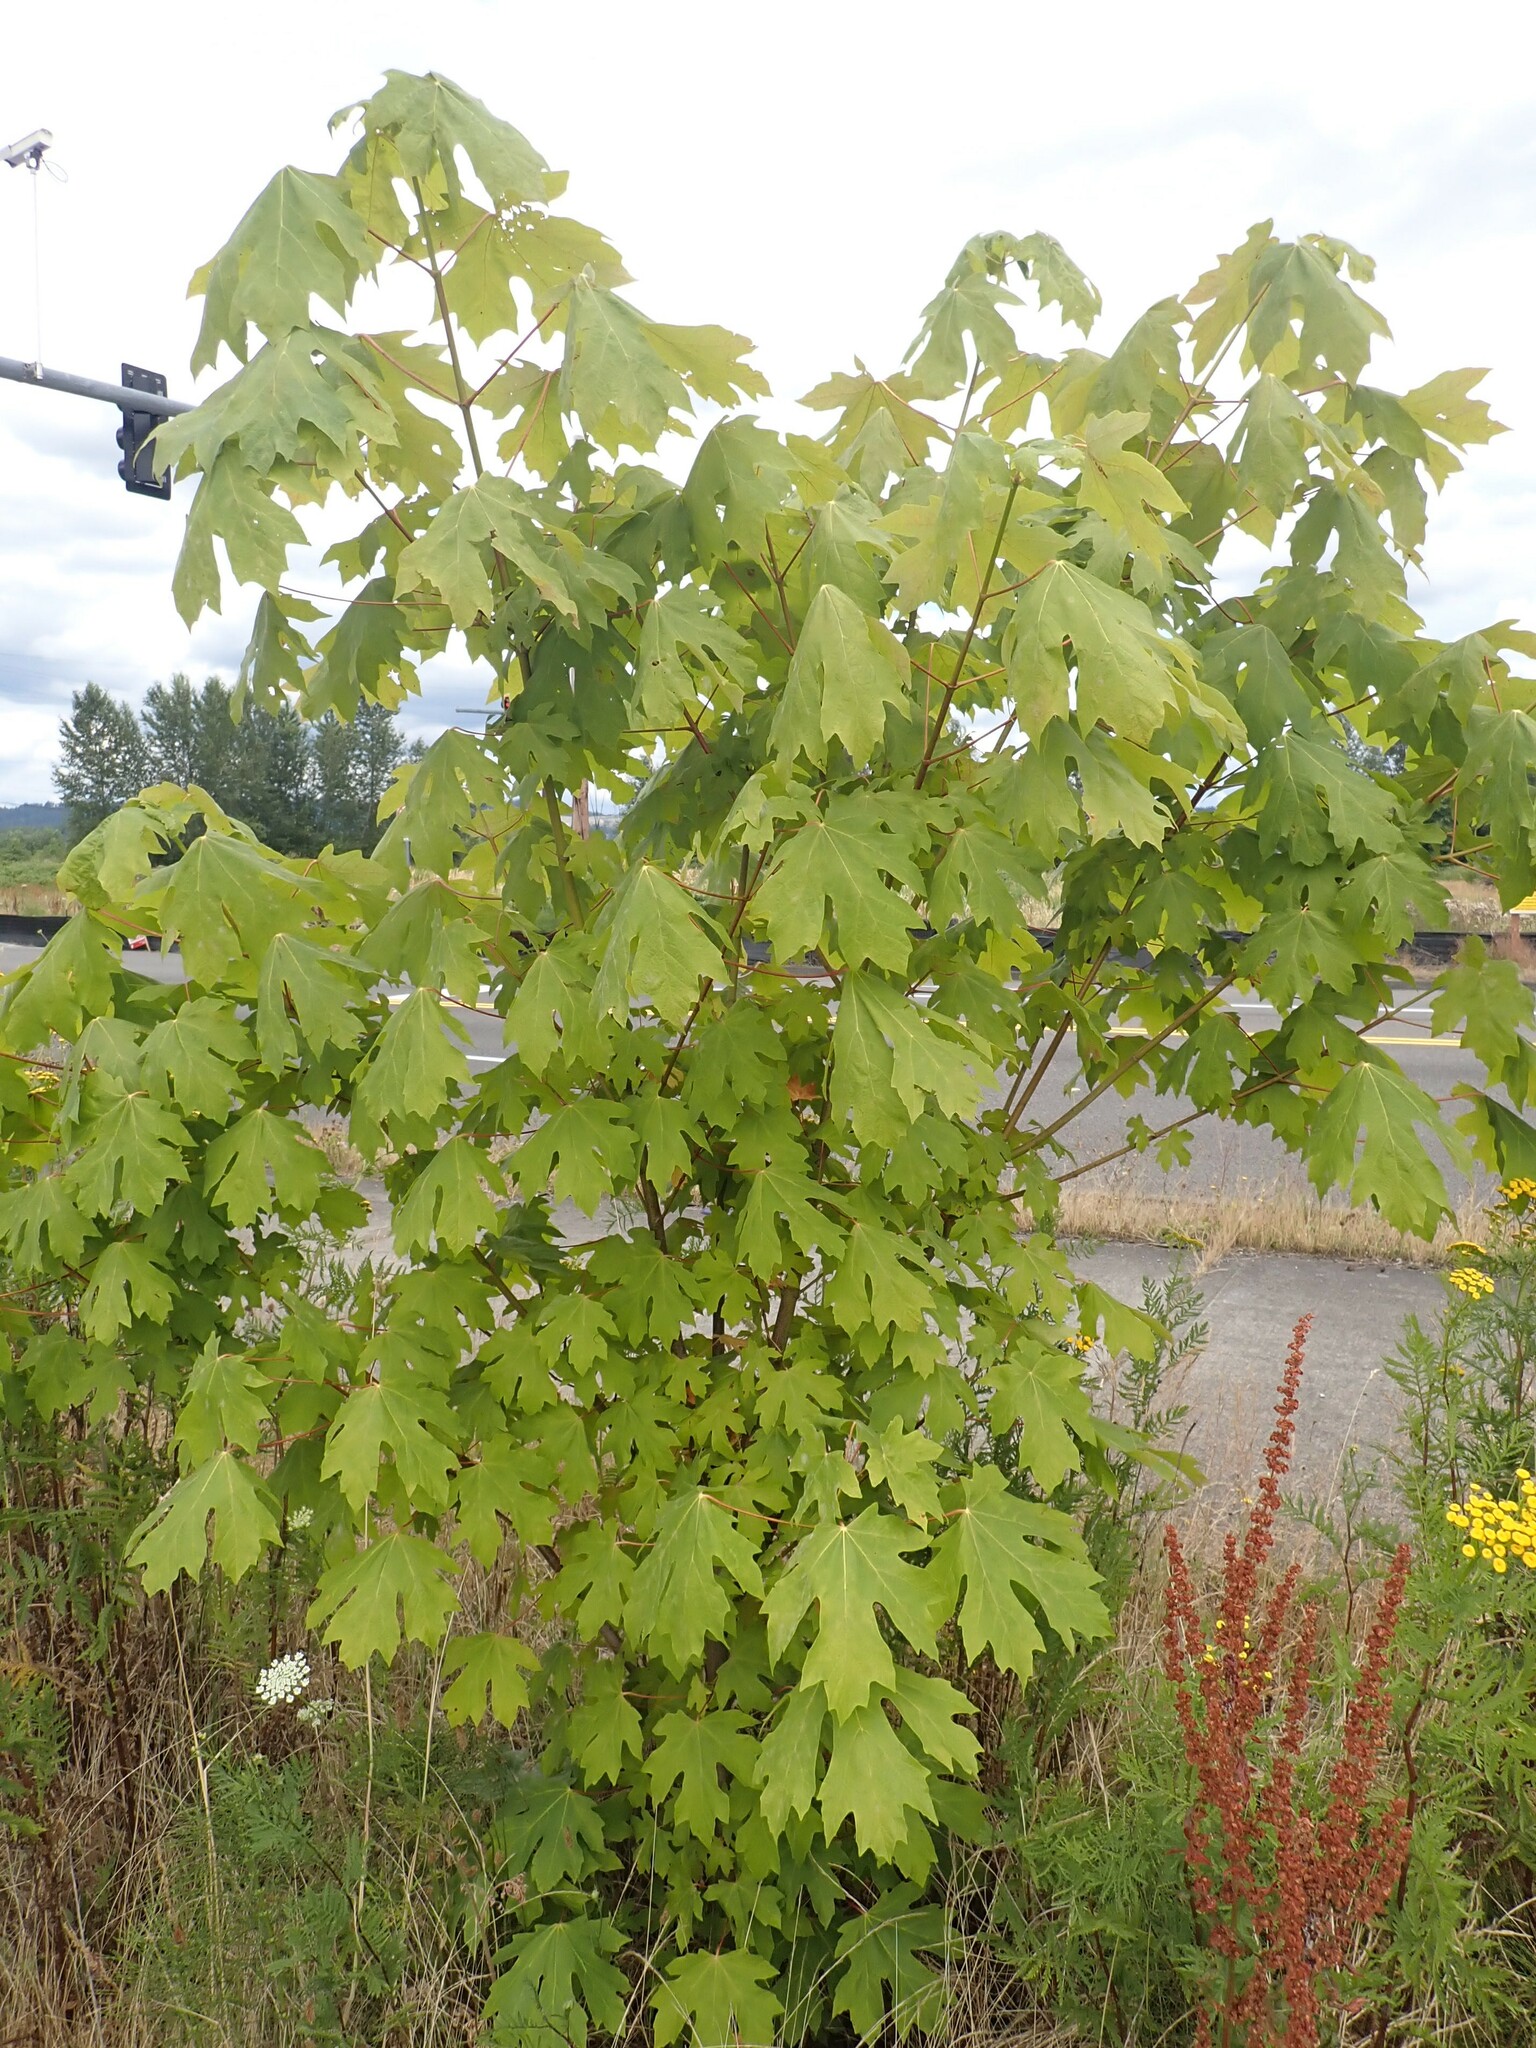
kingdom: Plantae
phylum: Tracheophyta
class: Magnoliopsida
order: Sapindales
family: Sapindaceae
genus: Acer
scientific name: Acer macrophyllum
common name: Oregon maple
